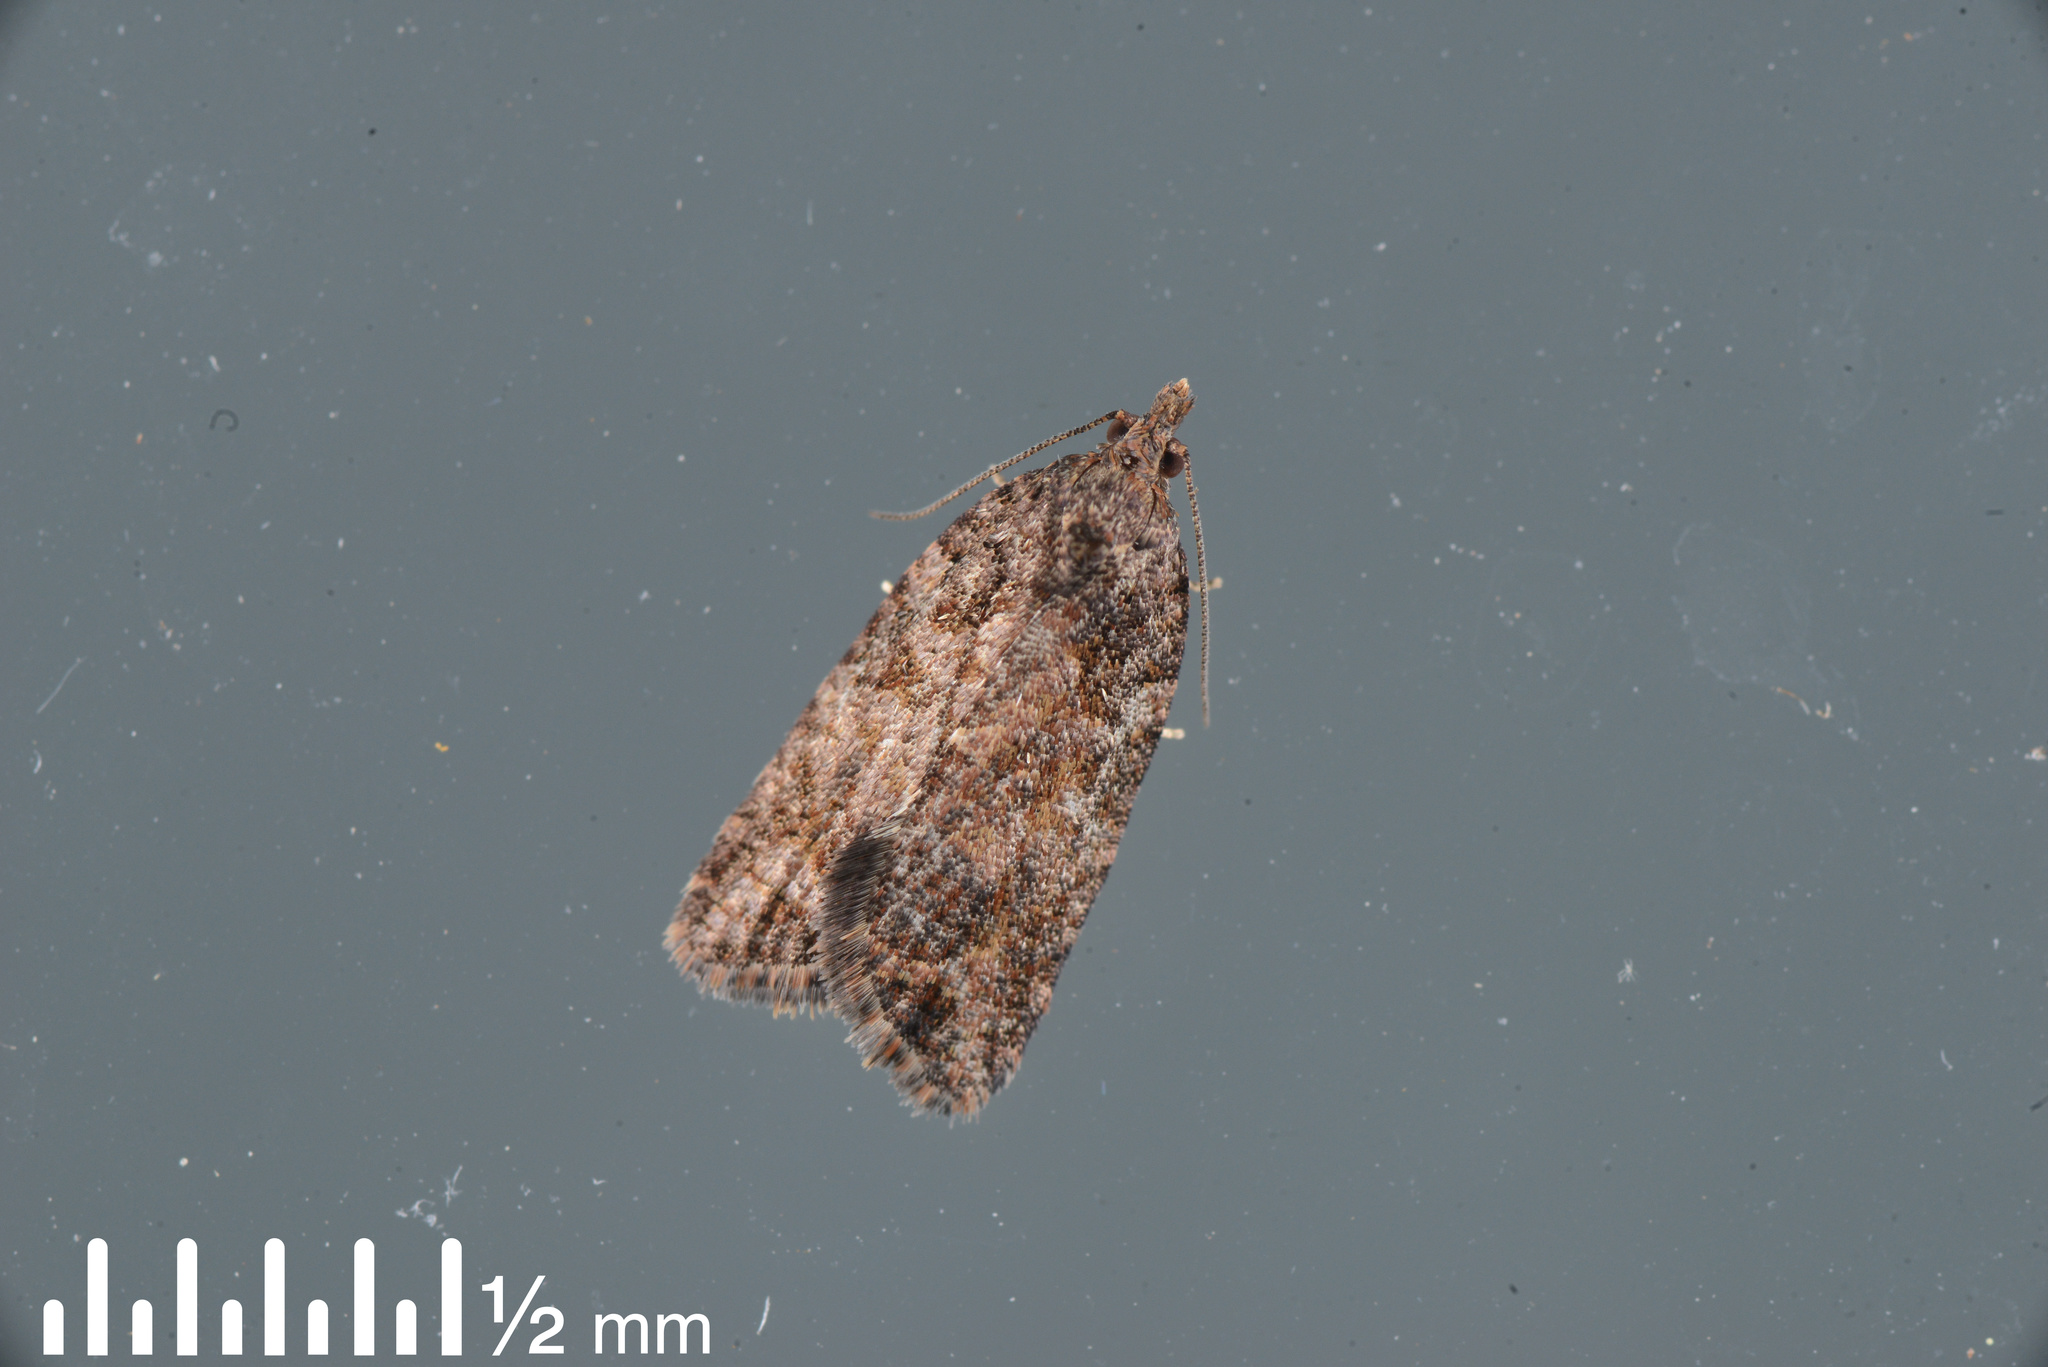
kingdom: Animalia
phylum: Arthropoda
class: Insecta
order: Lepidoptera
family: Tortricidae
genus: Capua
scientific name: Capua intractana
